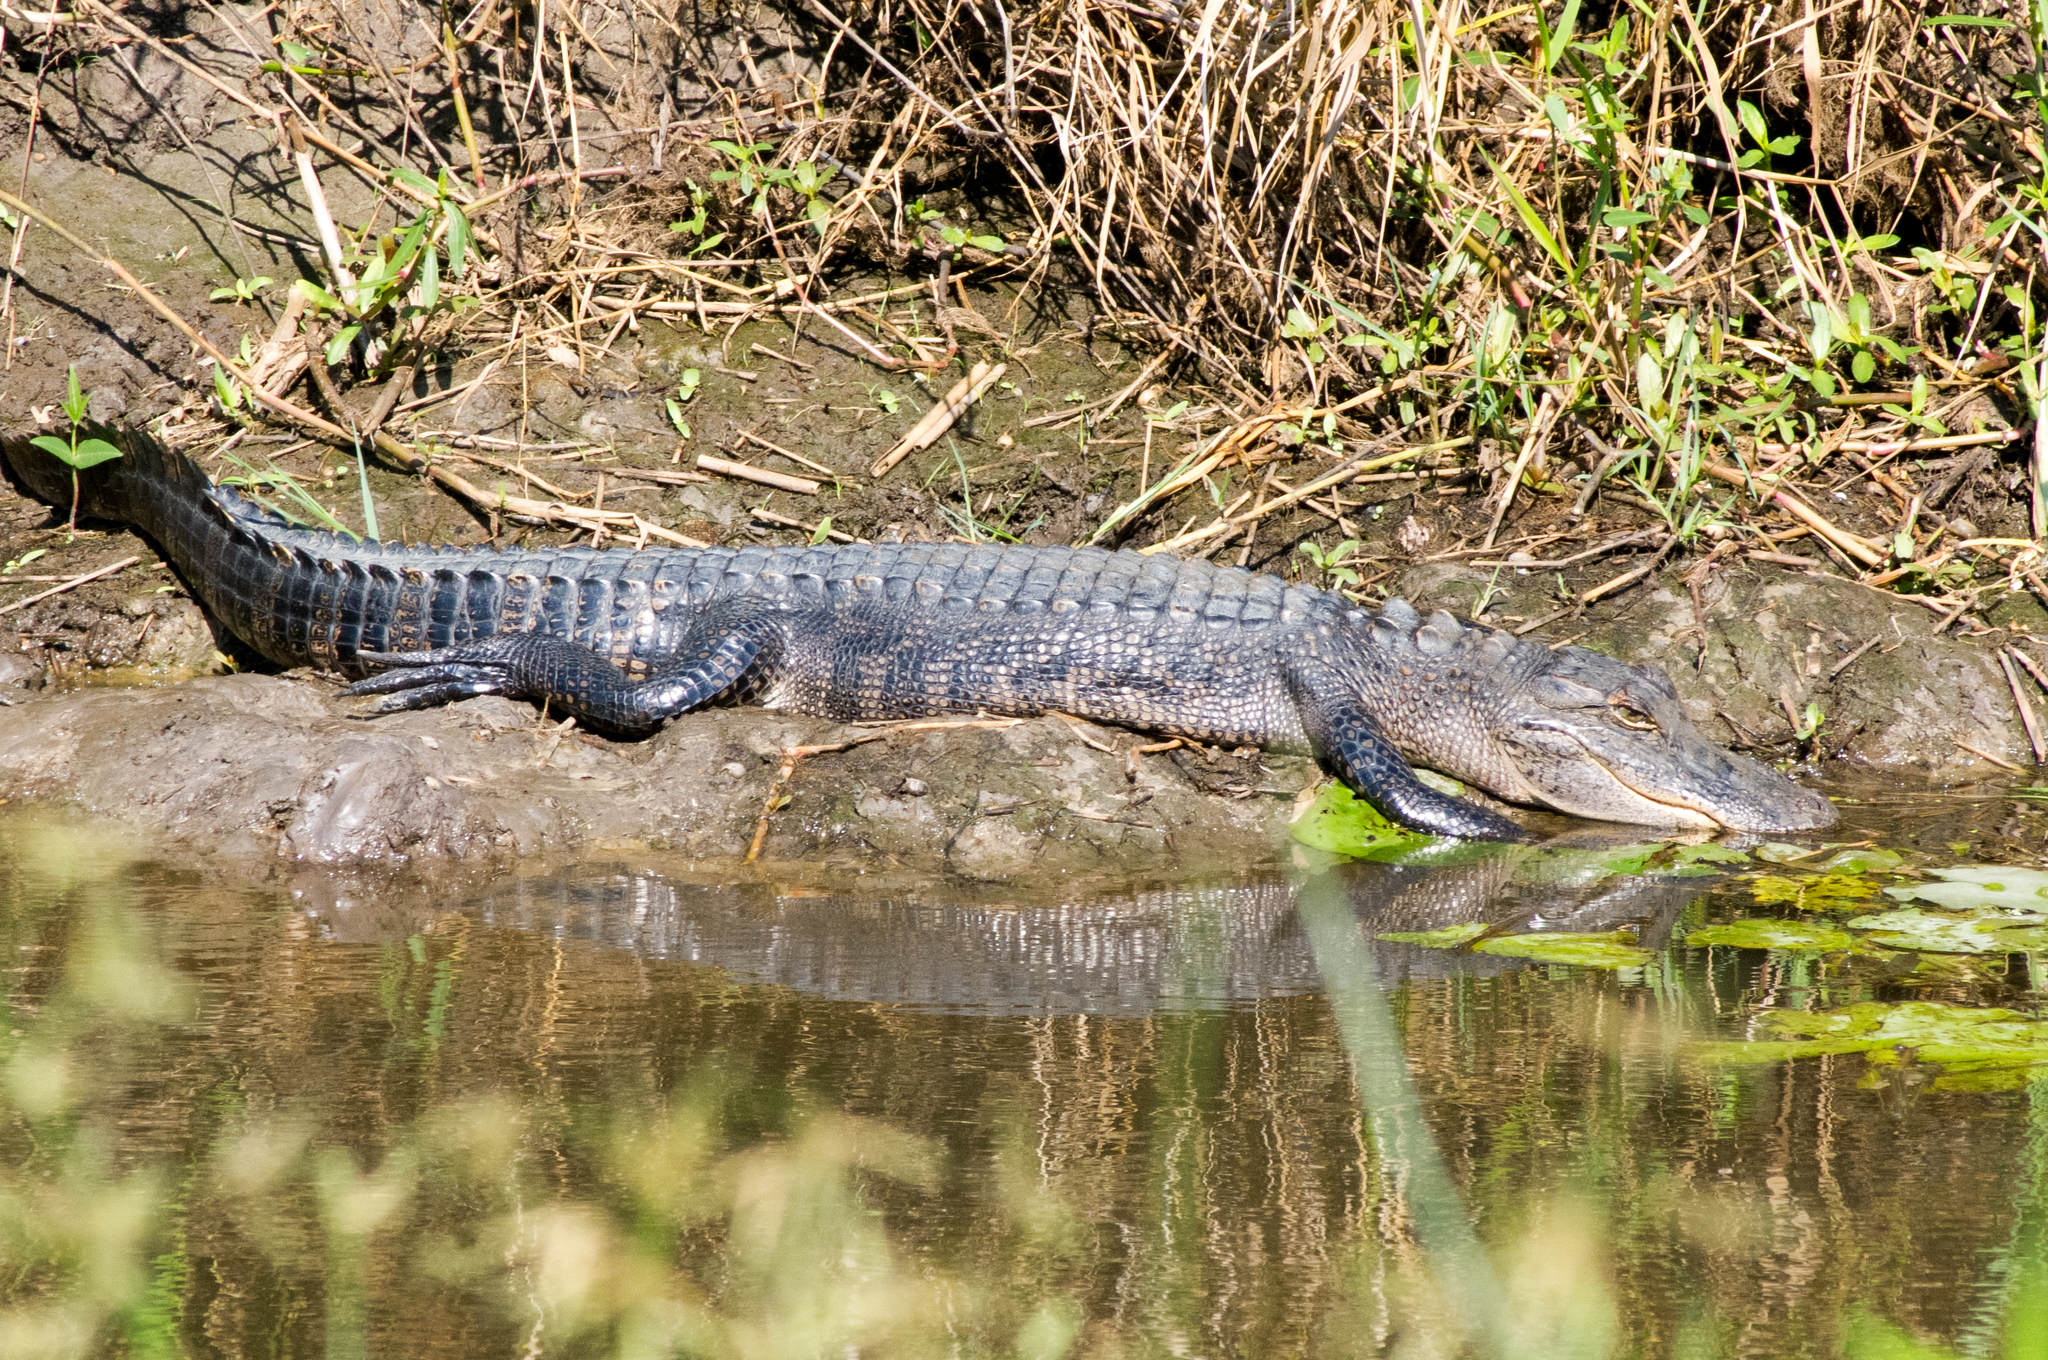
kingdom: Animalia
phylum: Chordata
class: Crocodylia
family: Alligatoridae
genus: Alligator
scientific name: Alligator mississippiensis
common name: American alligator
